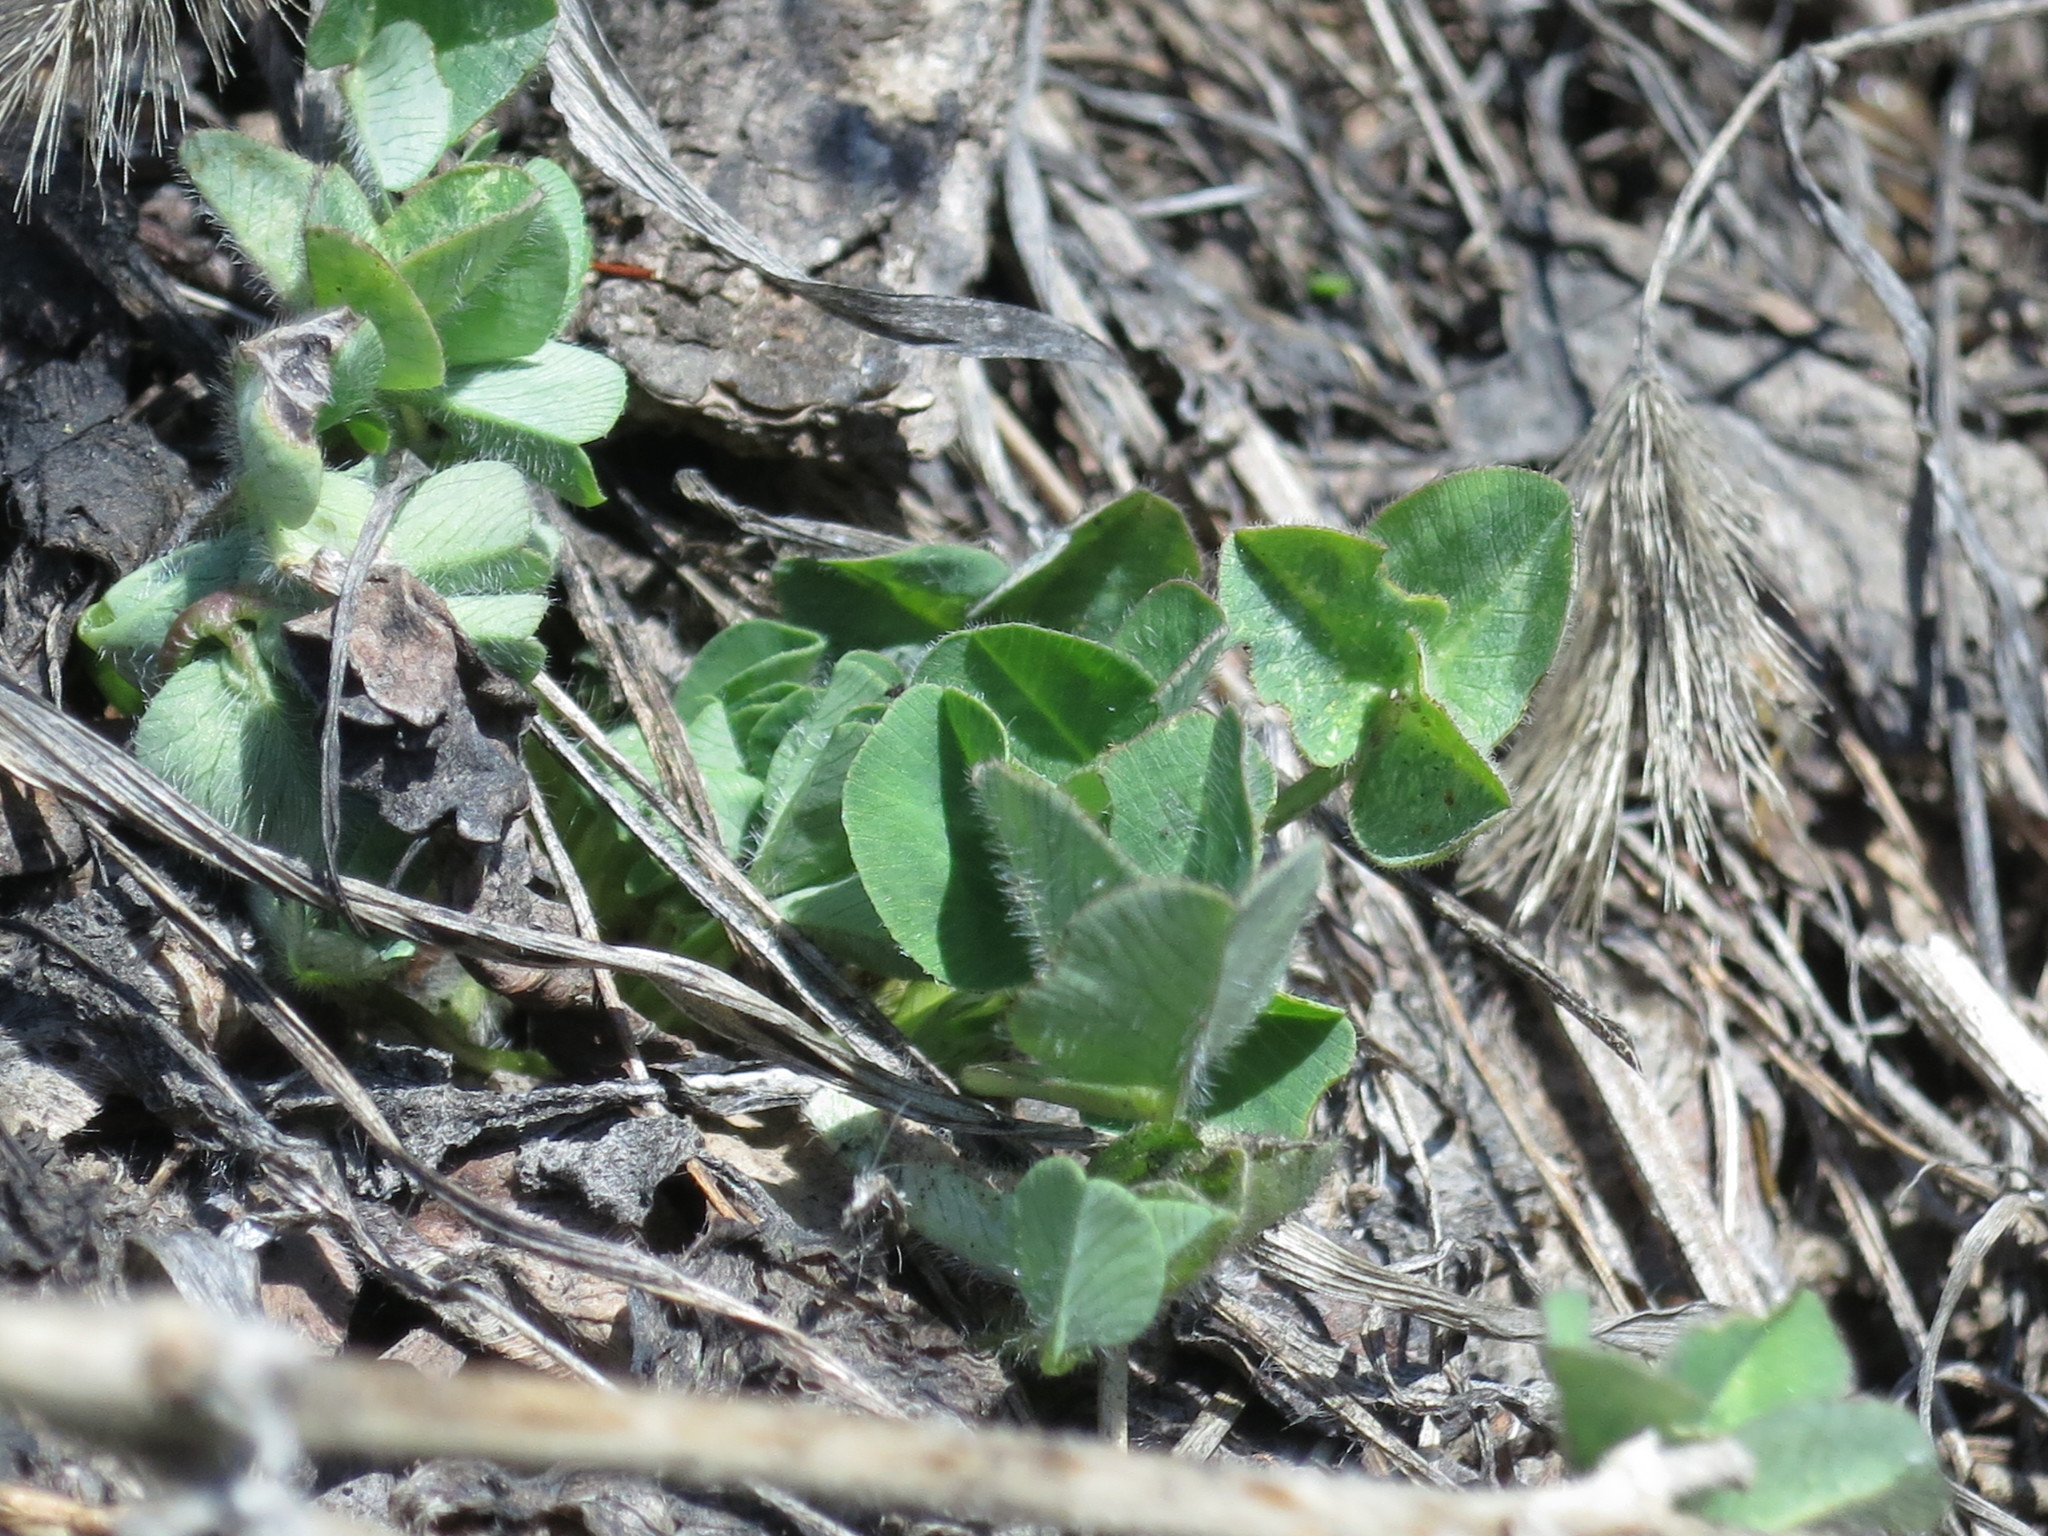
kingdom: Plantae
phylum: Tracheophyta
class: Magnoliopsida
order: Fabales
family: Fabaceae
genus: Trifolium
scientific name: Trifolium pratense
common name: Red clover
